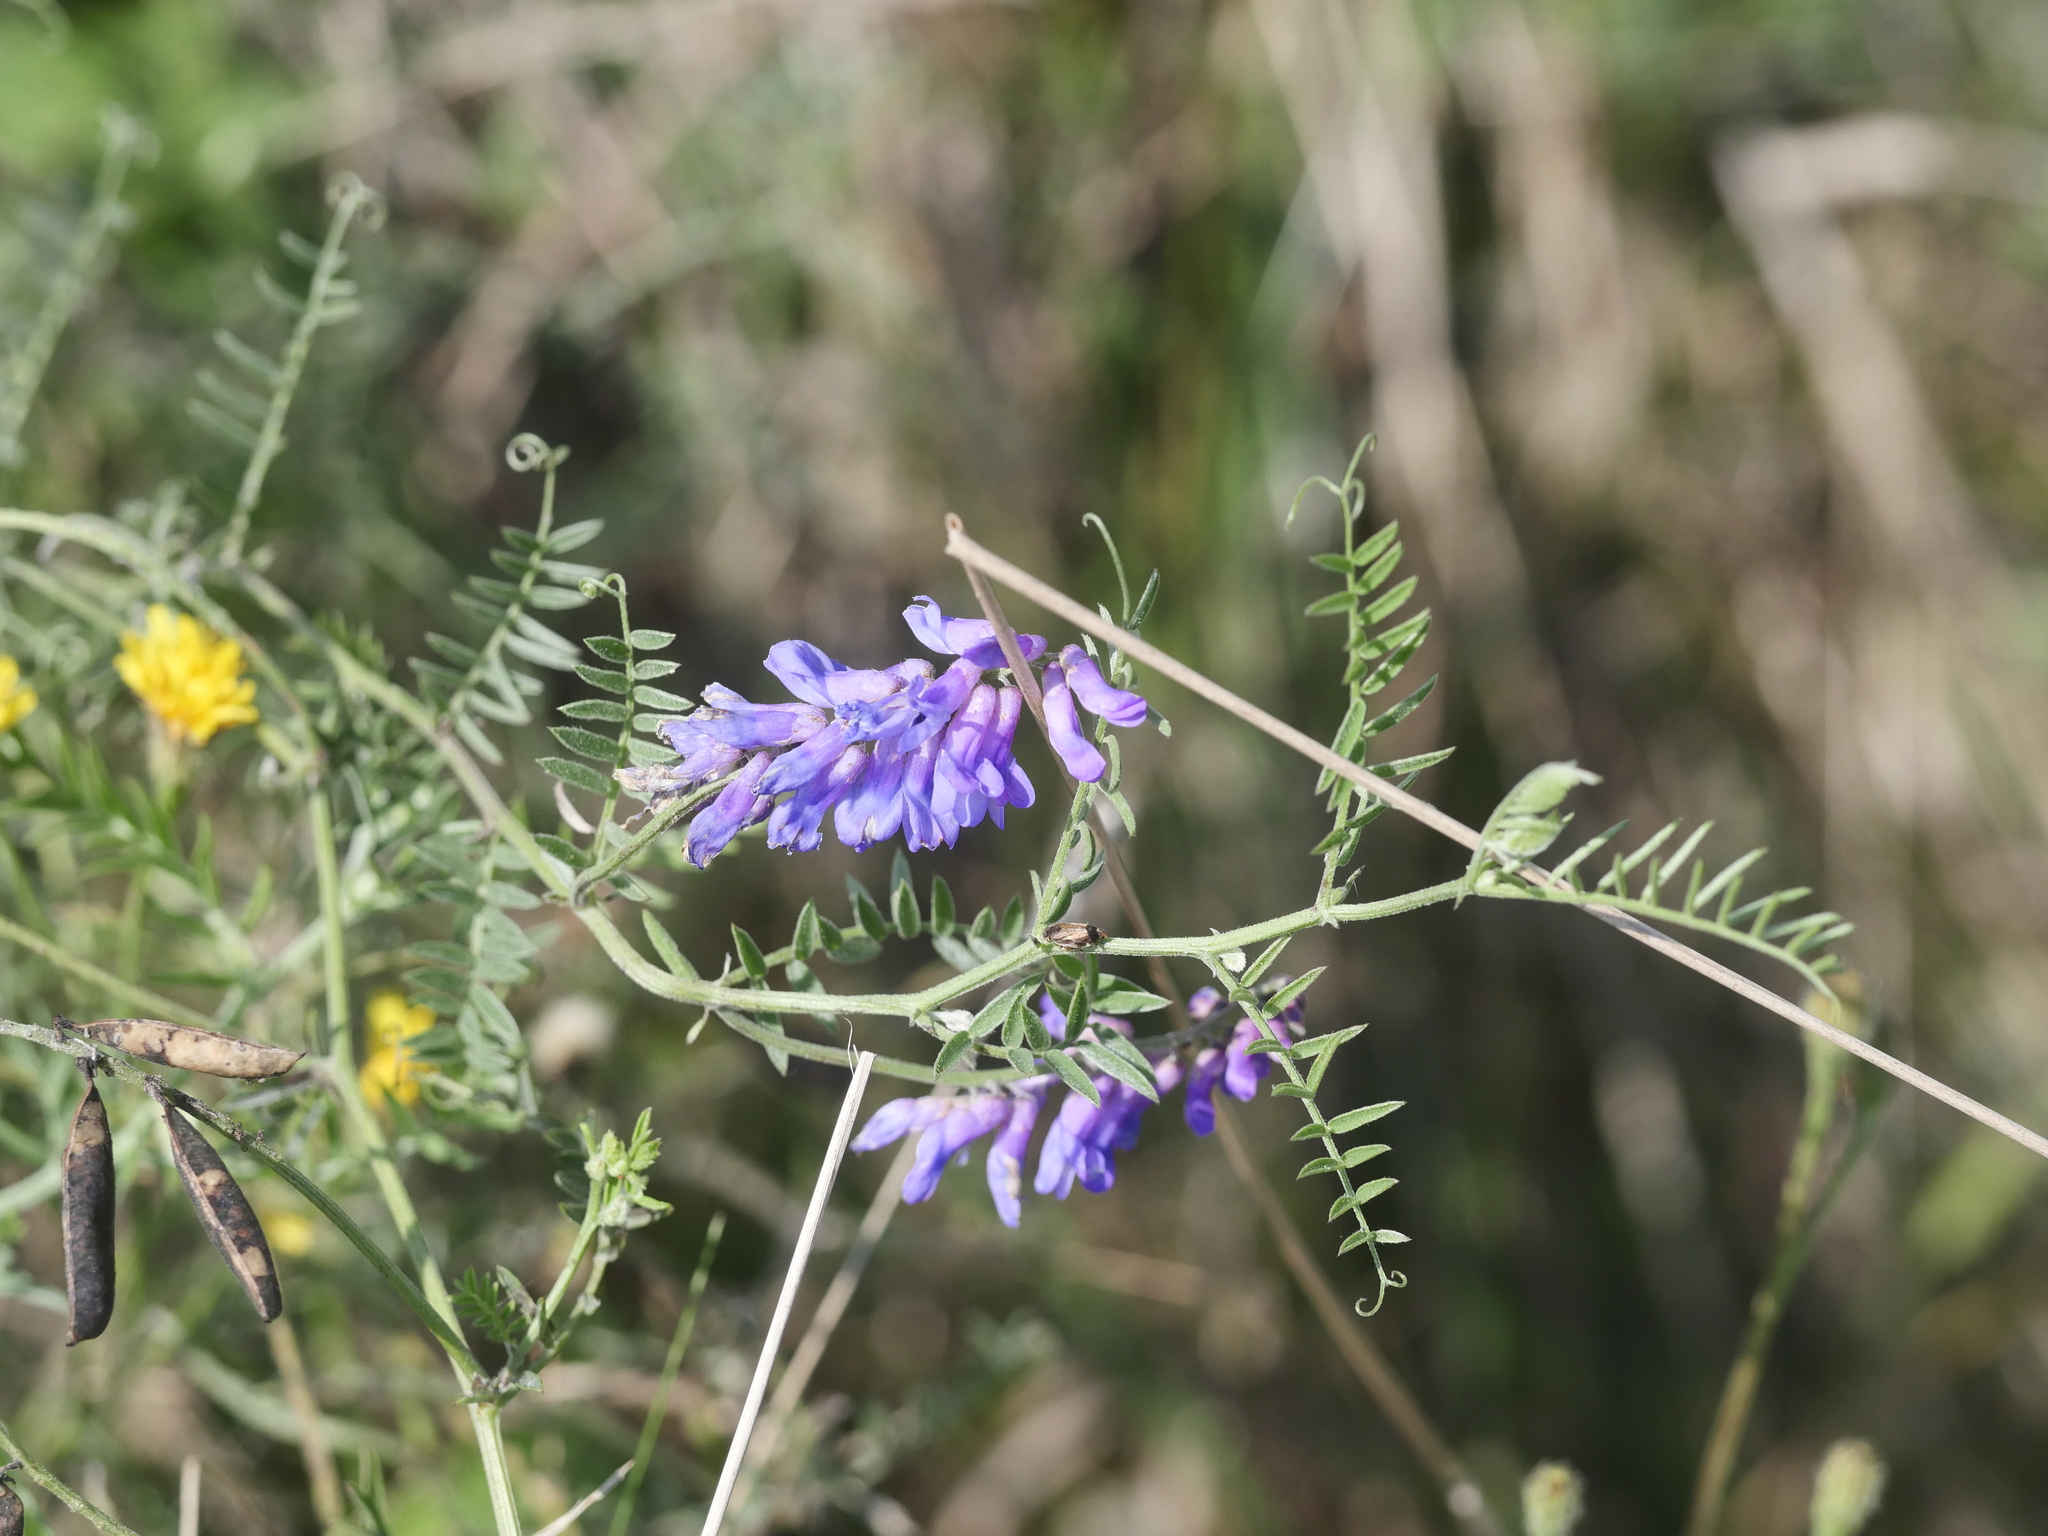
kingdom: Plantae
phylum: Tracheophyta
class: Magnoliopsida
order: Fabales
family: Fabaceae
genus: Vicia
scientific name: Vicia cracca
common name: Bird vetch
